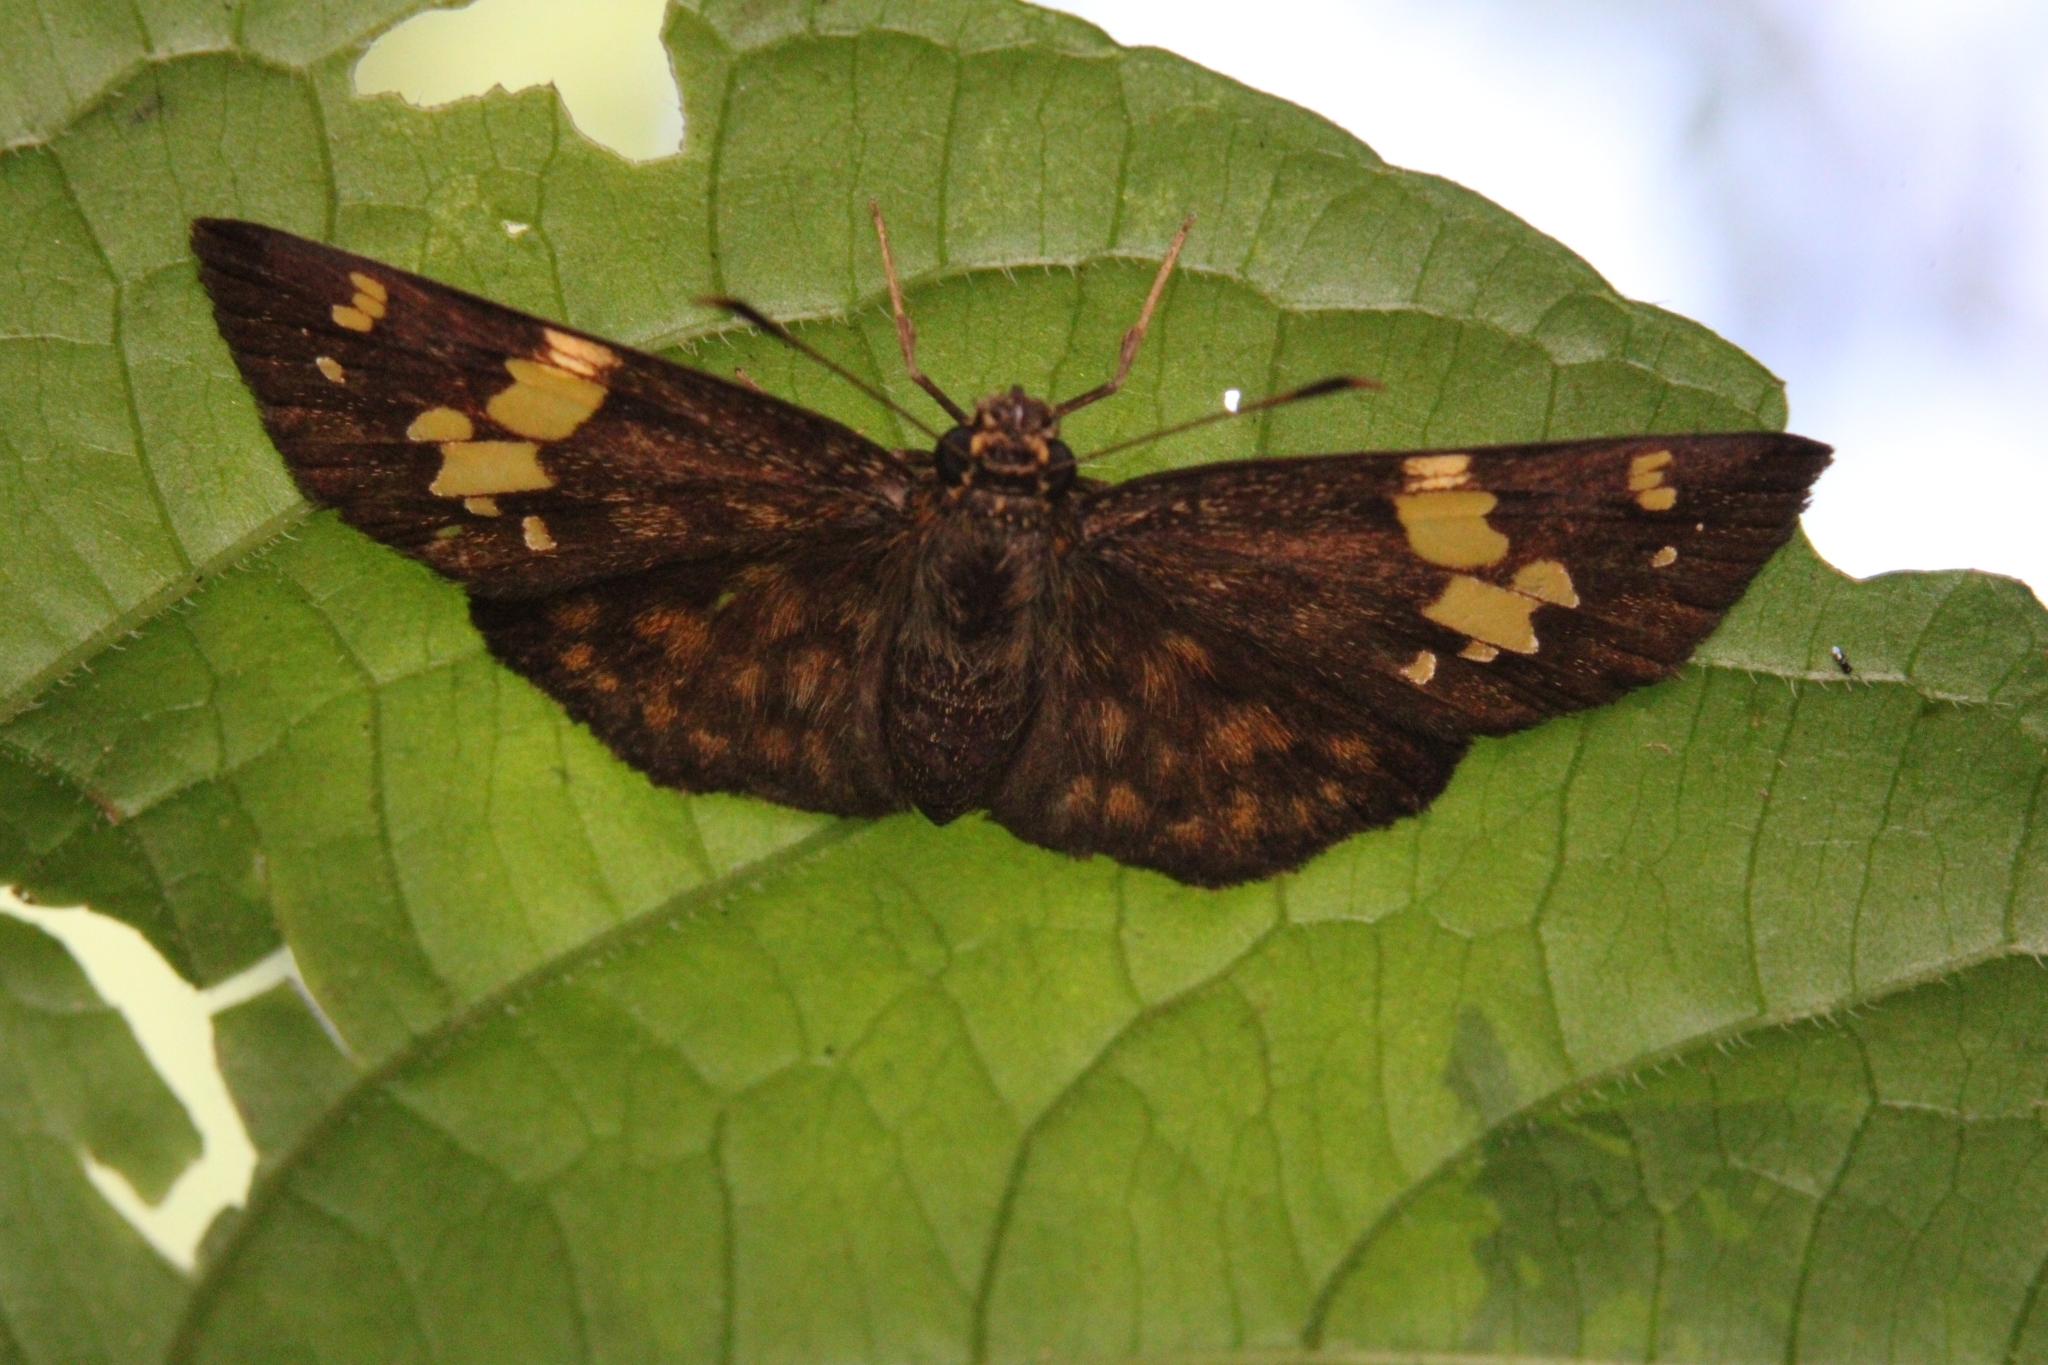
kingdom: Animalia
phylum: Arthropoda
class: Insecta
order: Lepidoptera
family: Hesperiidae
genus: Bettonula
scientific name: Bettonula bettoni
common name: Betton’s sprite
